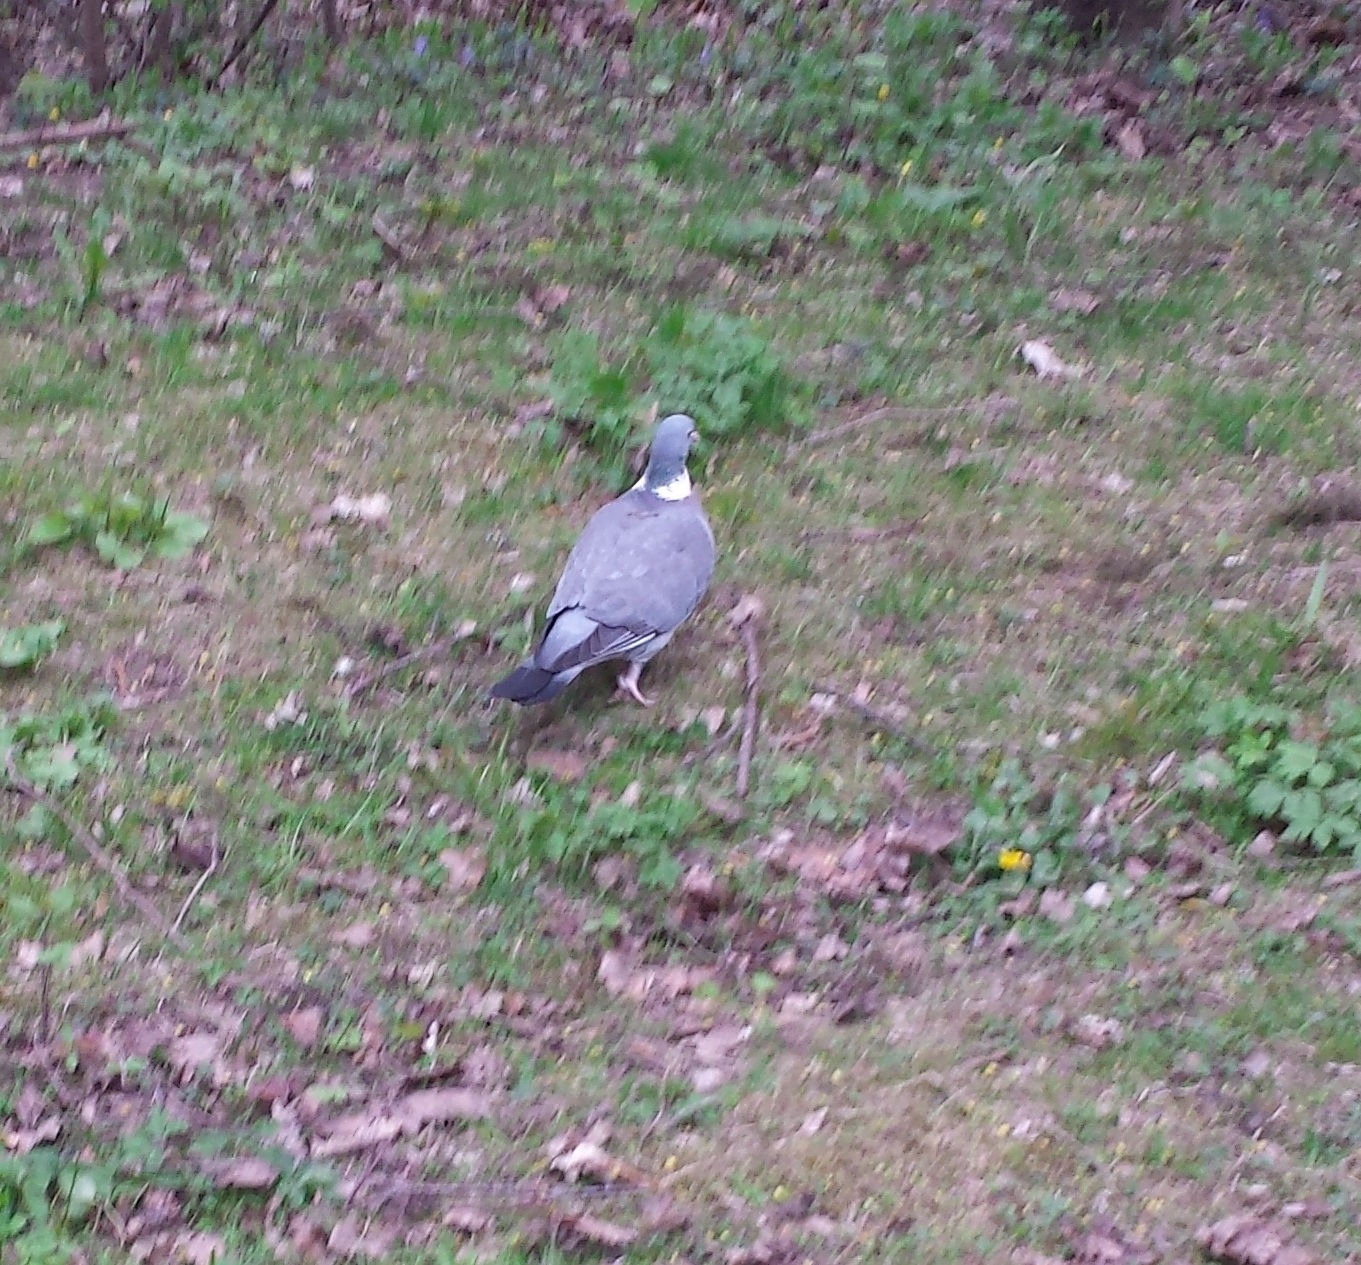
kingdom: Animalia
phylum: Chordata
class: Aves
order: Columbiformes
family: Columbidae
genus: Columba
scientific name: Columba palumbus
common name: Common wood pigeon
